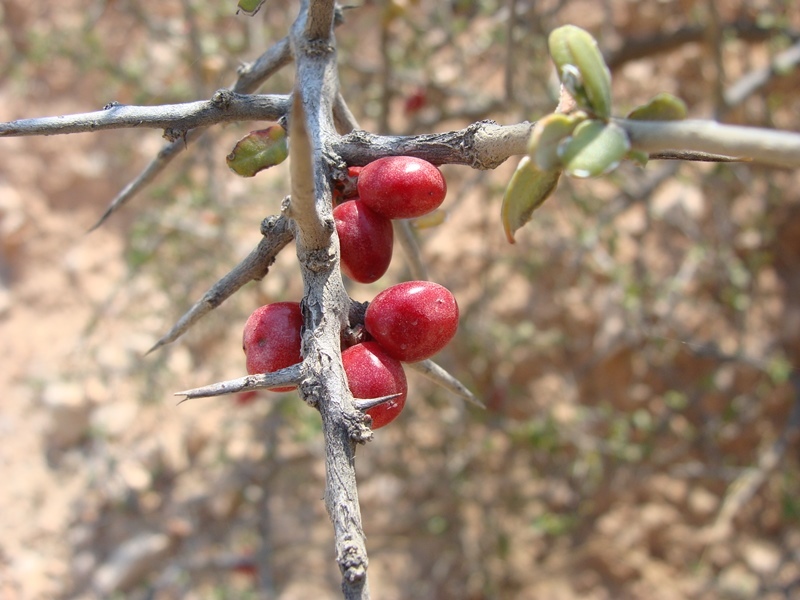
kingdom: Plantae
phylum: Tracheophyta
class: Magnoliopsida
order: Sapindales
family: Simaroubaceae
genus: Castela
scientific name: Castela tortuosa
